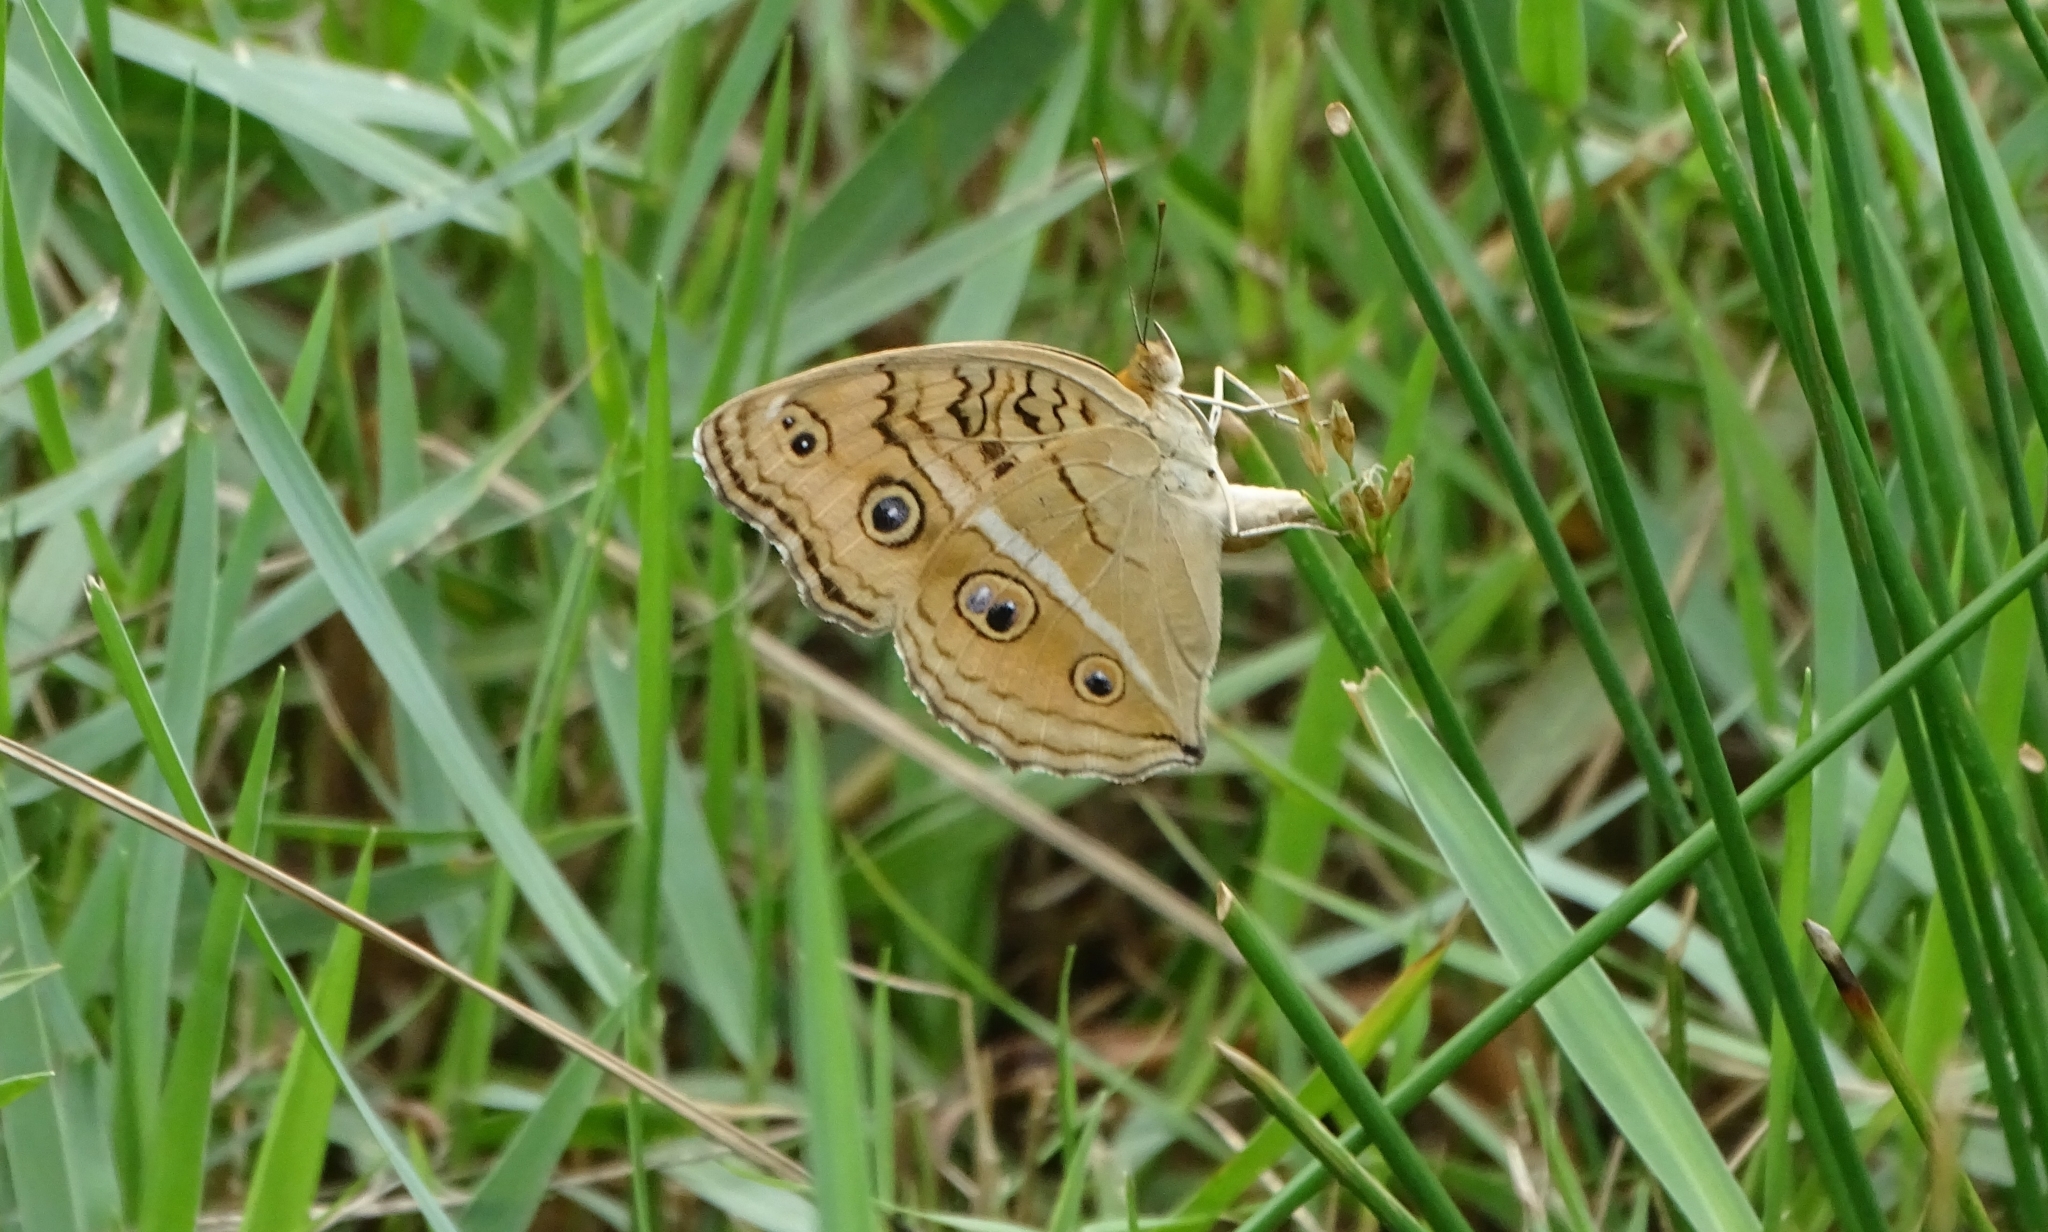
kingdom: Animalia
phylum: Arthropoda
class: Insecta
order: Lepidoptera
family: Nymphalidae
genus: Junonia
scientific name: Junonia almana
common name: Peacock pansy
